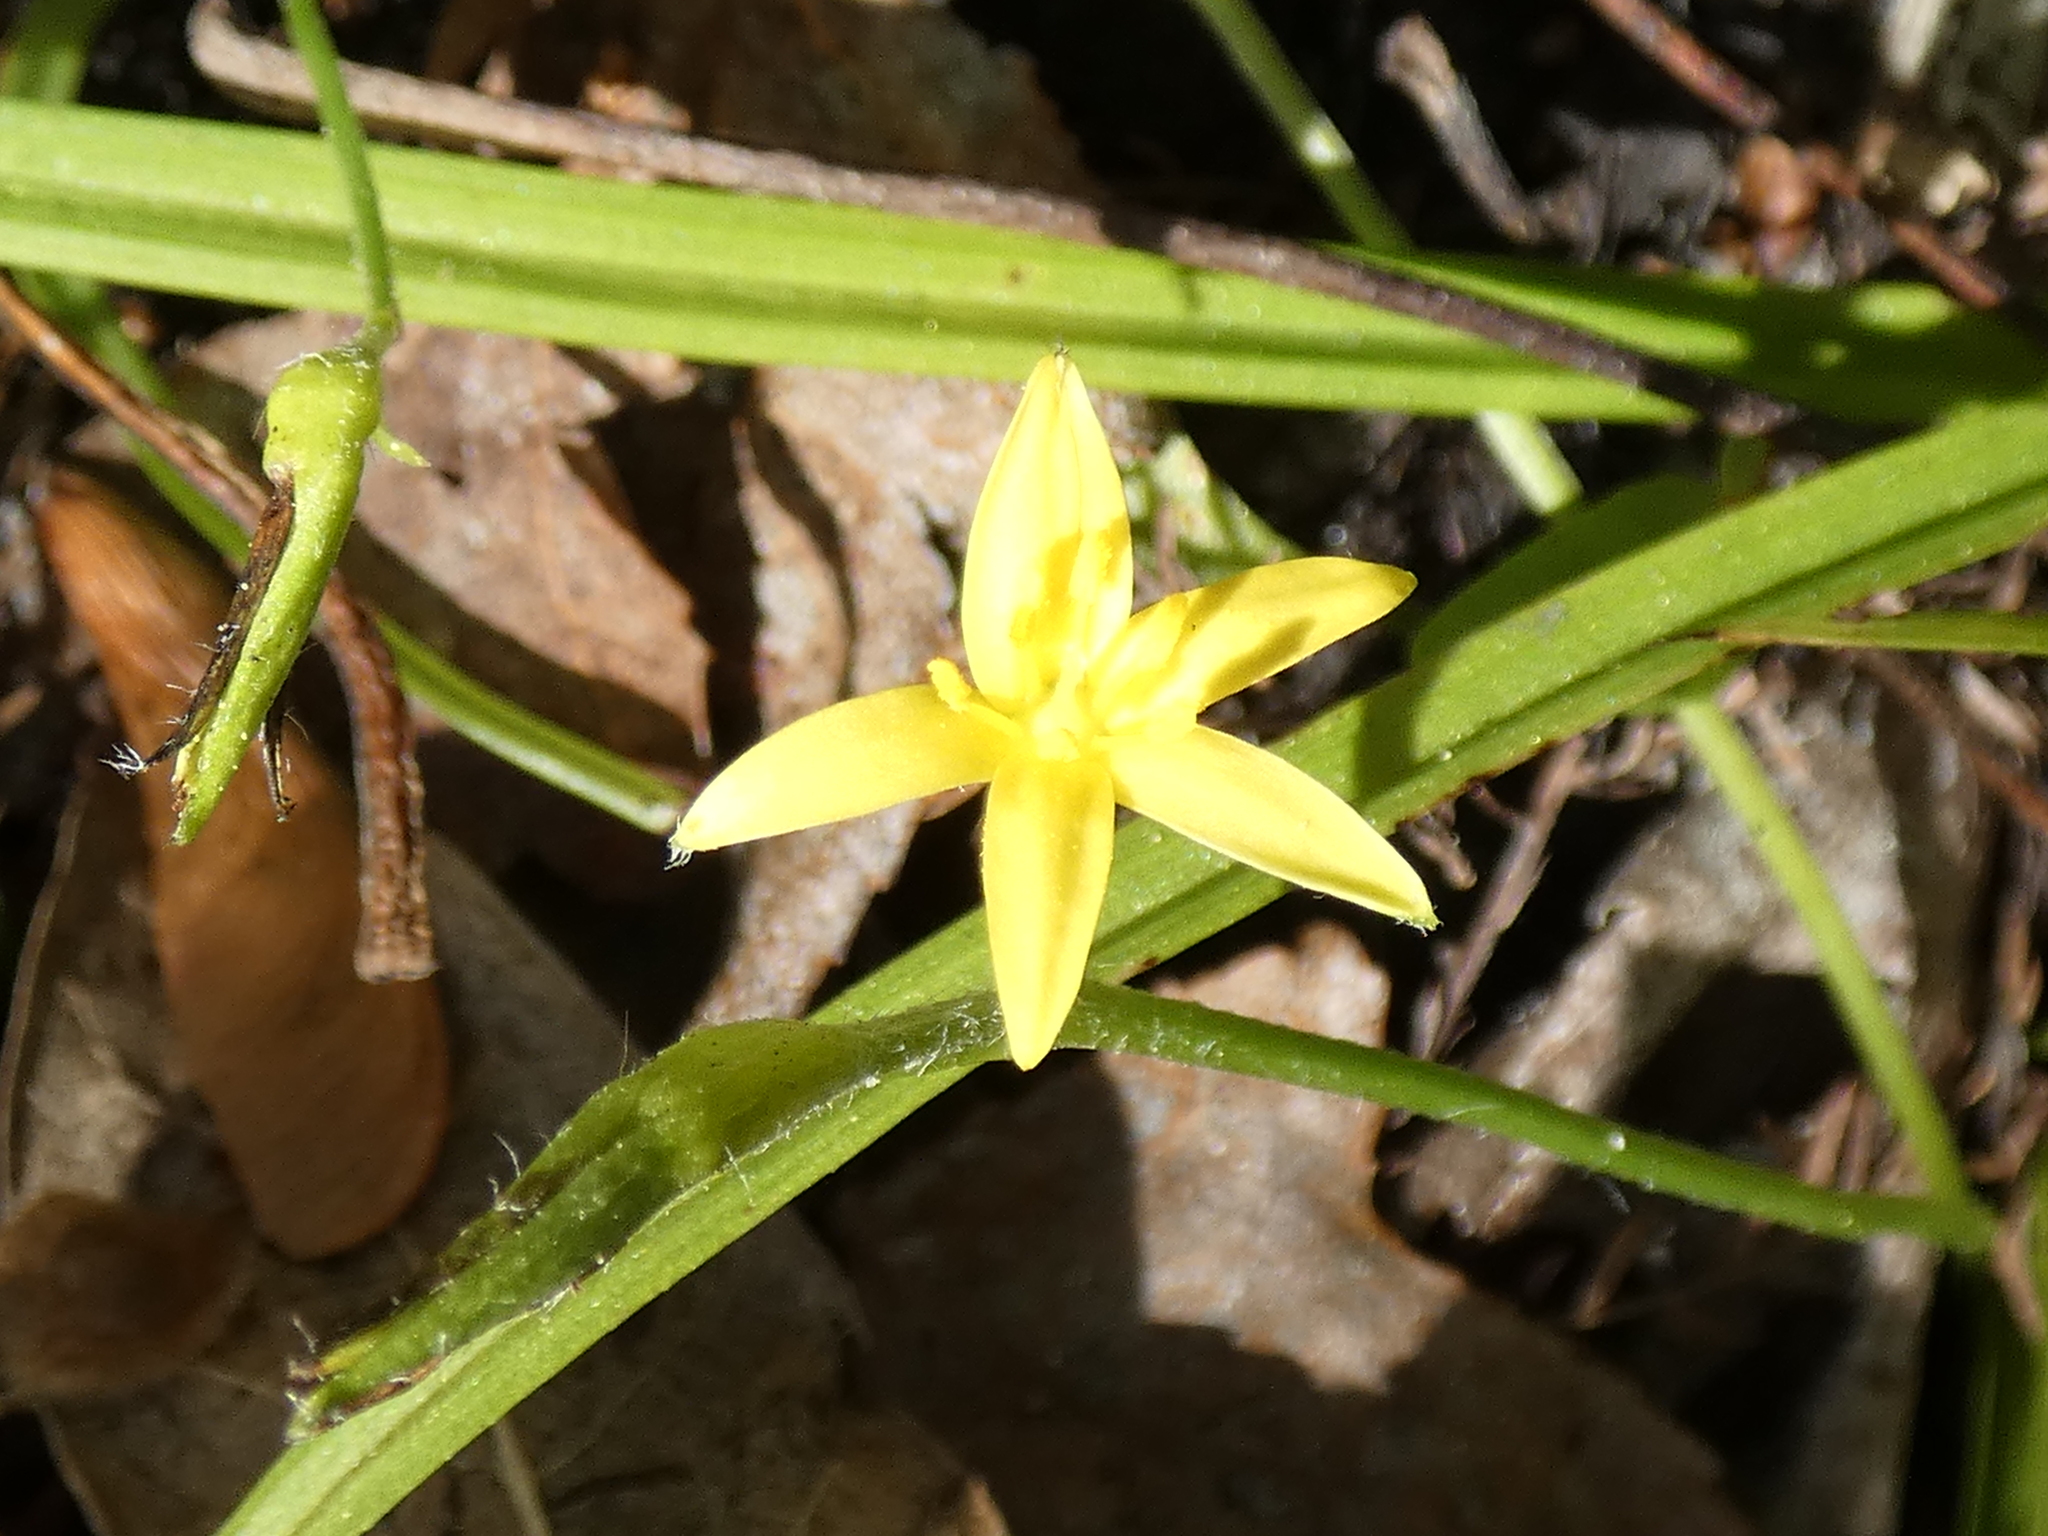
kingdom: Plantae
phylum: Tracheophyta
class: Liliopsida
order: Asparagales
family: Hypoxidaceae
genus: Hypoxis
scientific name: Hypoxis curtissii
